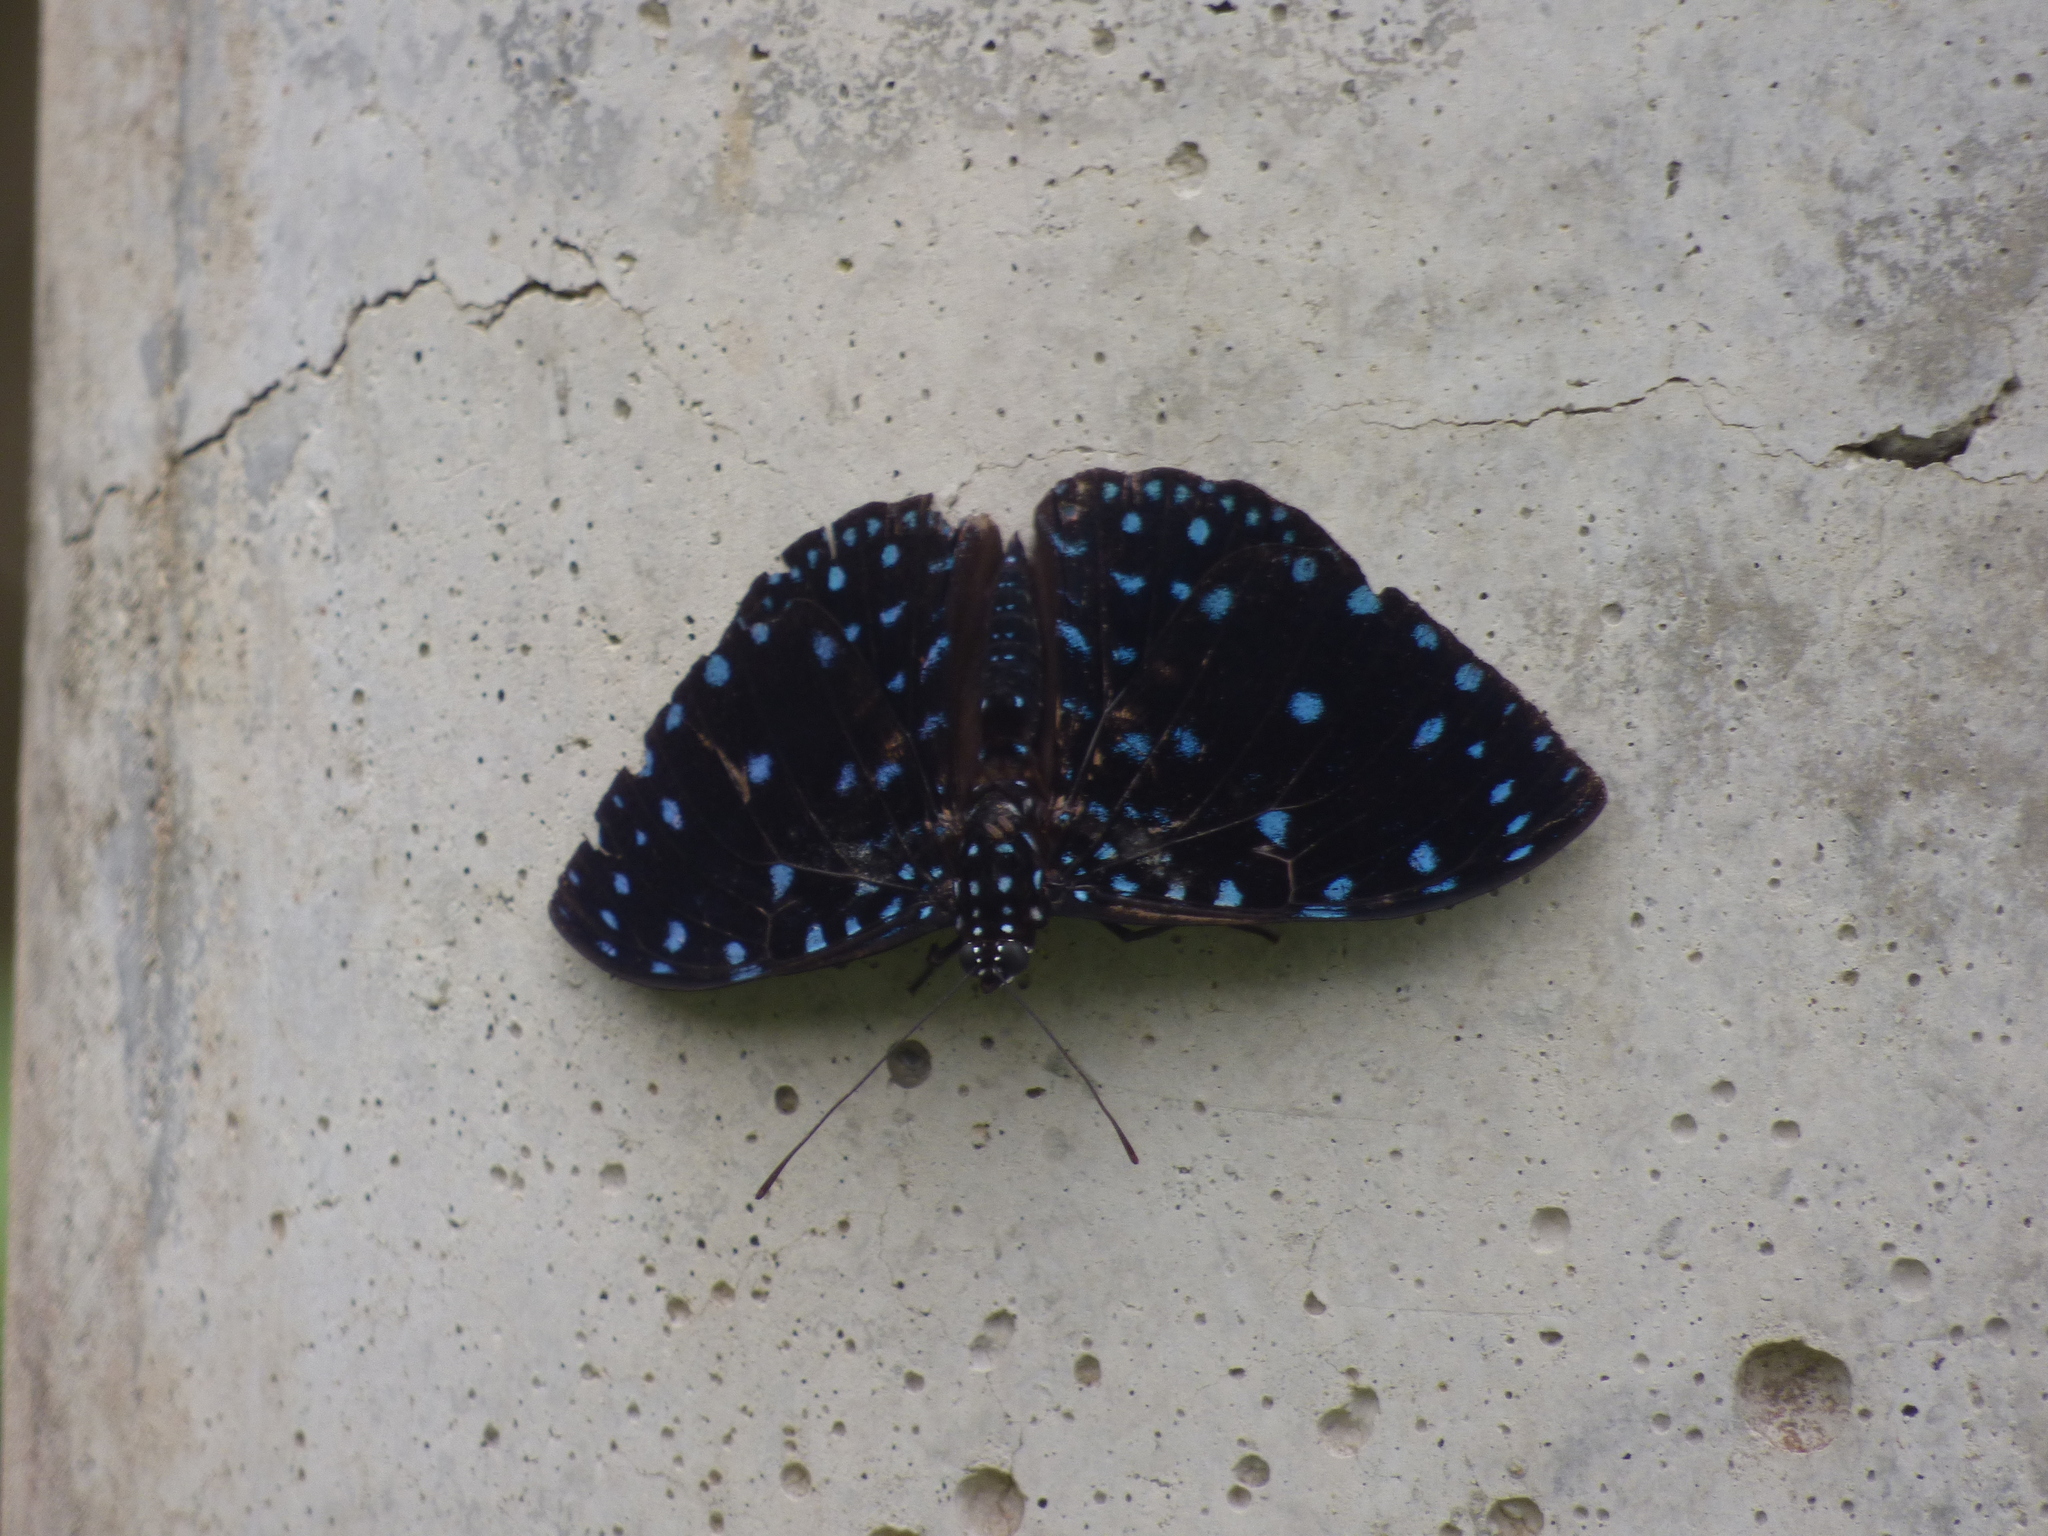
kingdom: Animalia
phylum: Arthropoda
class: Insecta
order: Lepidoptera
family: Nymphalidae
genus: Hamadryas
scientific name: Hamadryas laodamia
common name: Starry night cracker
